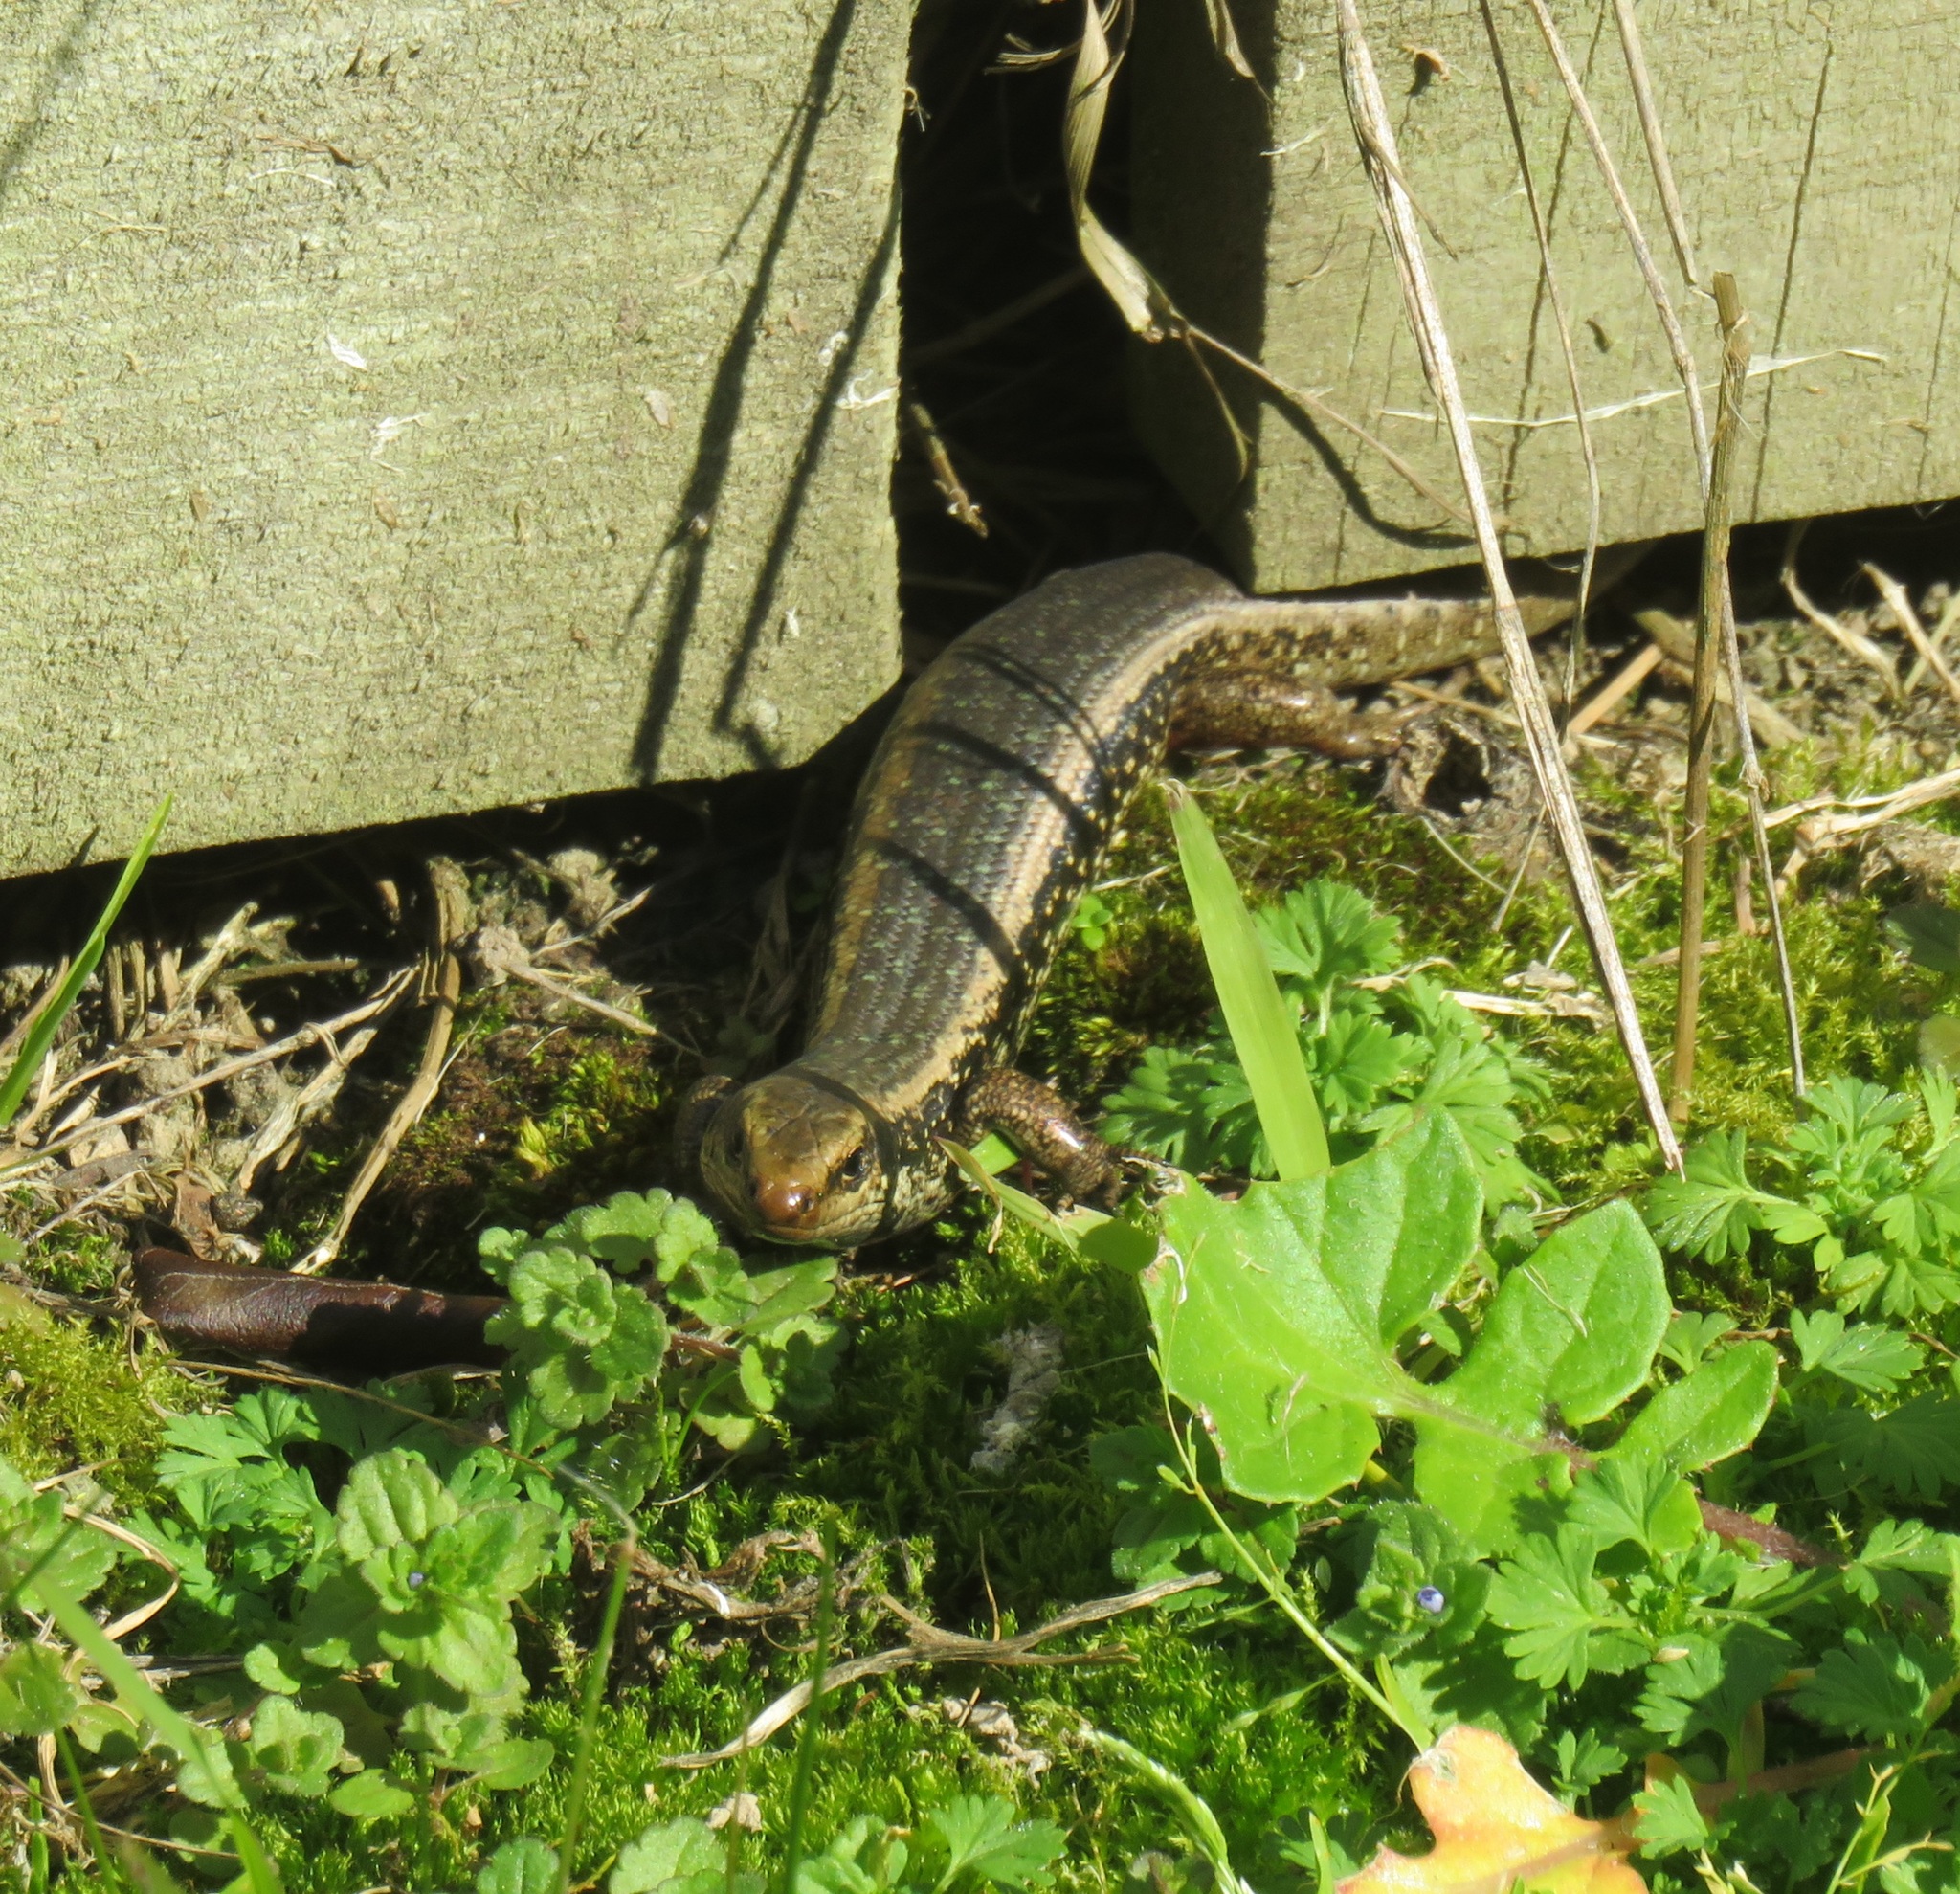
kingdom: Animalia
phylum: Chordata
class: Squamata
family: Scincidae
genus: Oligosoma
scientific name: Oligosoma kokowai
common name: Northern spotted skink
